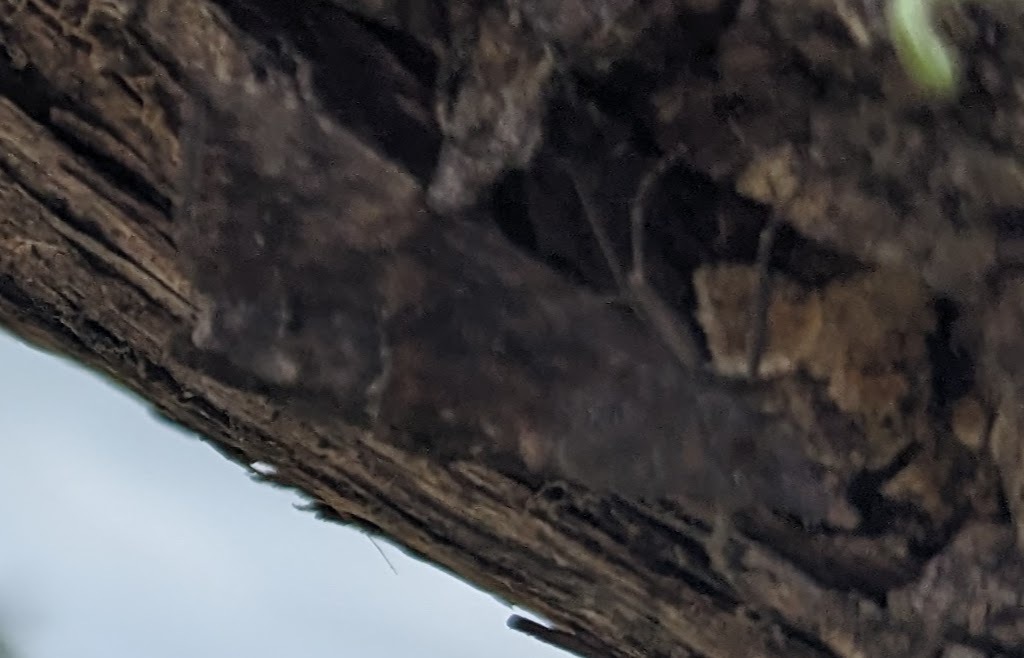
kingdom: Animalia
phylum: Arthropoda
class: Insecta
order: Lepidoptera
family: Erebidae
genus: Hypena
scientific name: Hypena scabra
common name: Green cloverworm
